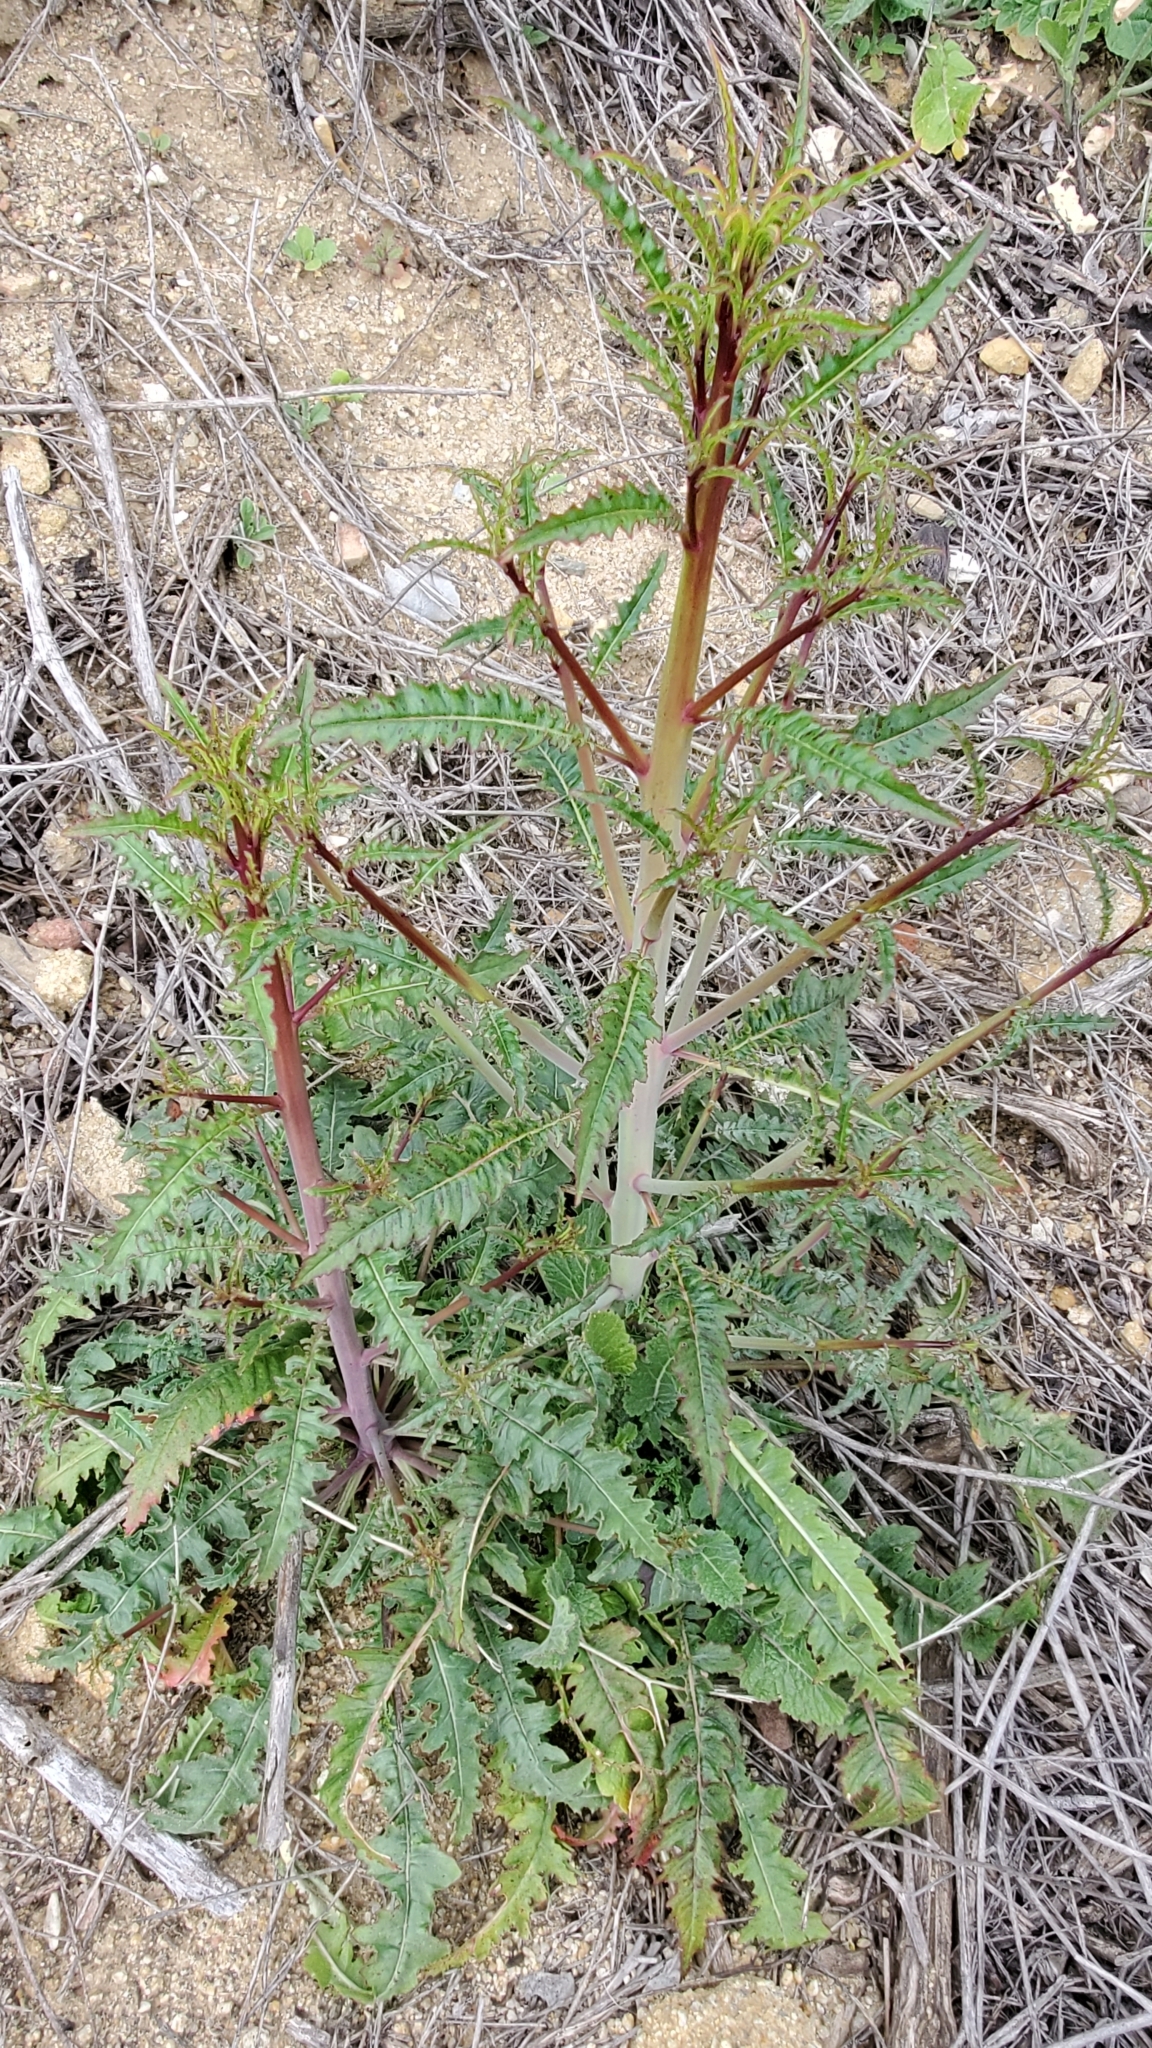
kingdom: Plantae
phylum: Tracheophyta
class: Magnoliopsida
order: Myrtales
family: Onagraceae
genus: Eulobus
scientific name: Eulobus californicus
